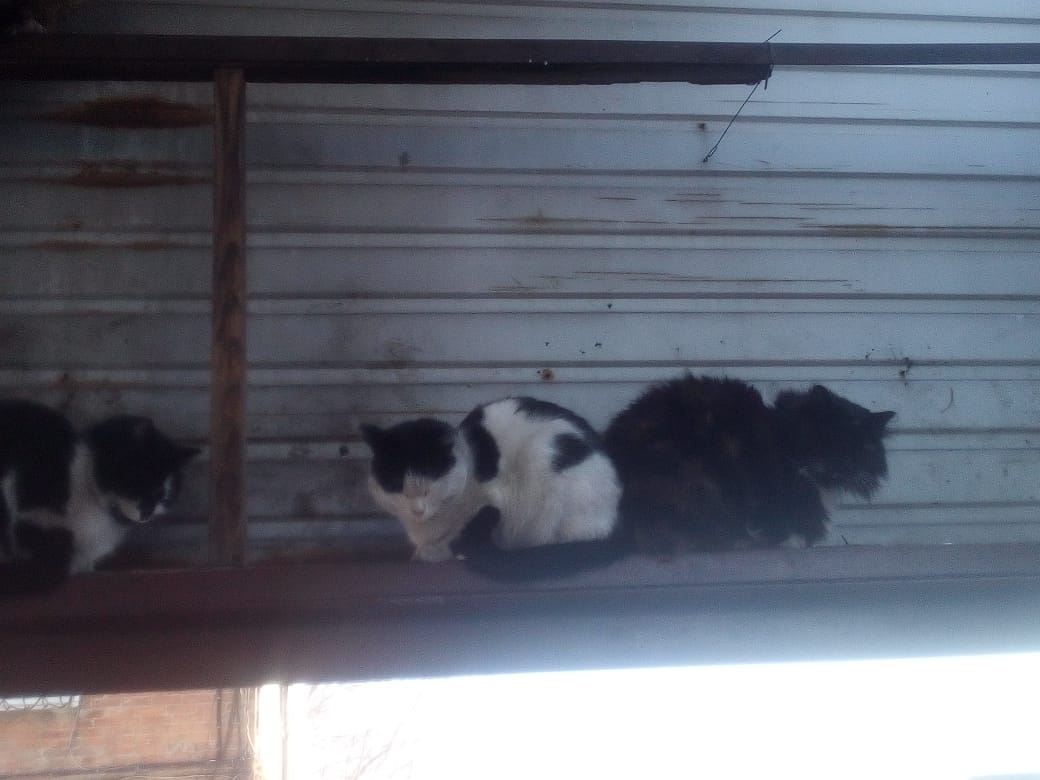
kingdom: Animalia
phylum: Chordata
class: Mammalia
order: Carnivora
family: Felidae
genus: Felis
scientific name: Felis catus
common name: Domestic cat
